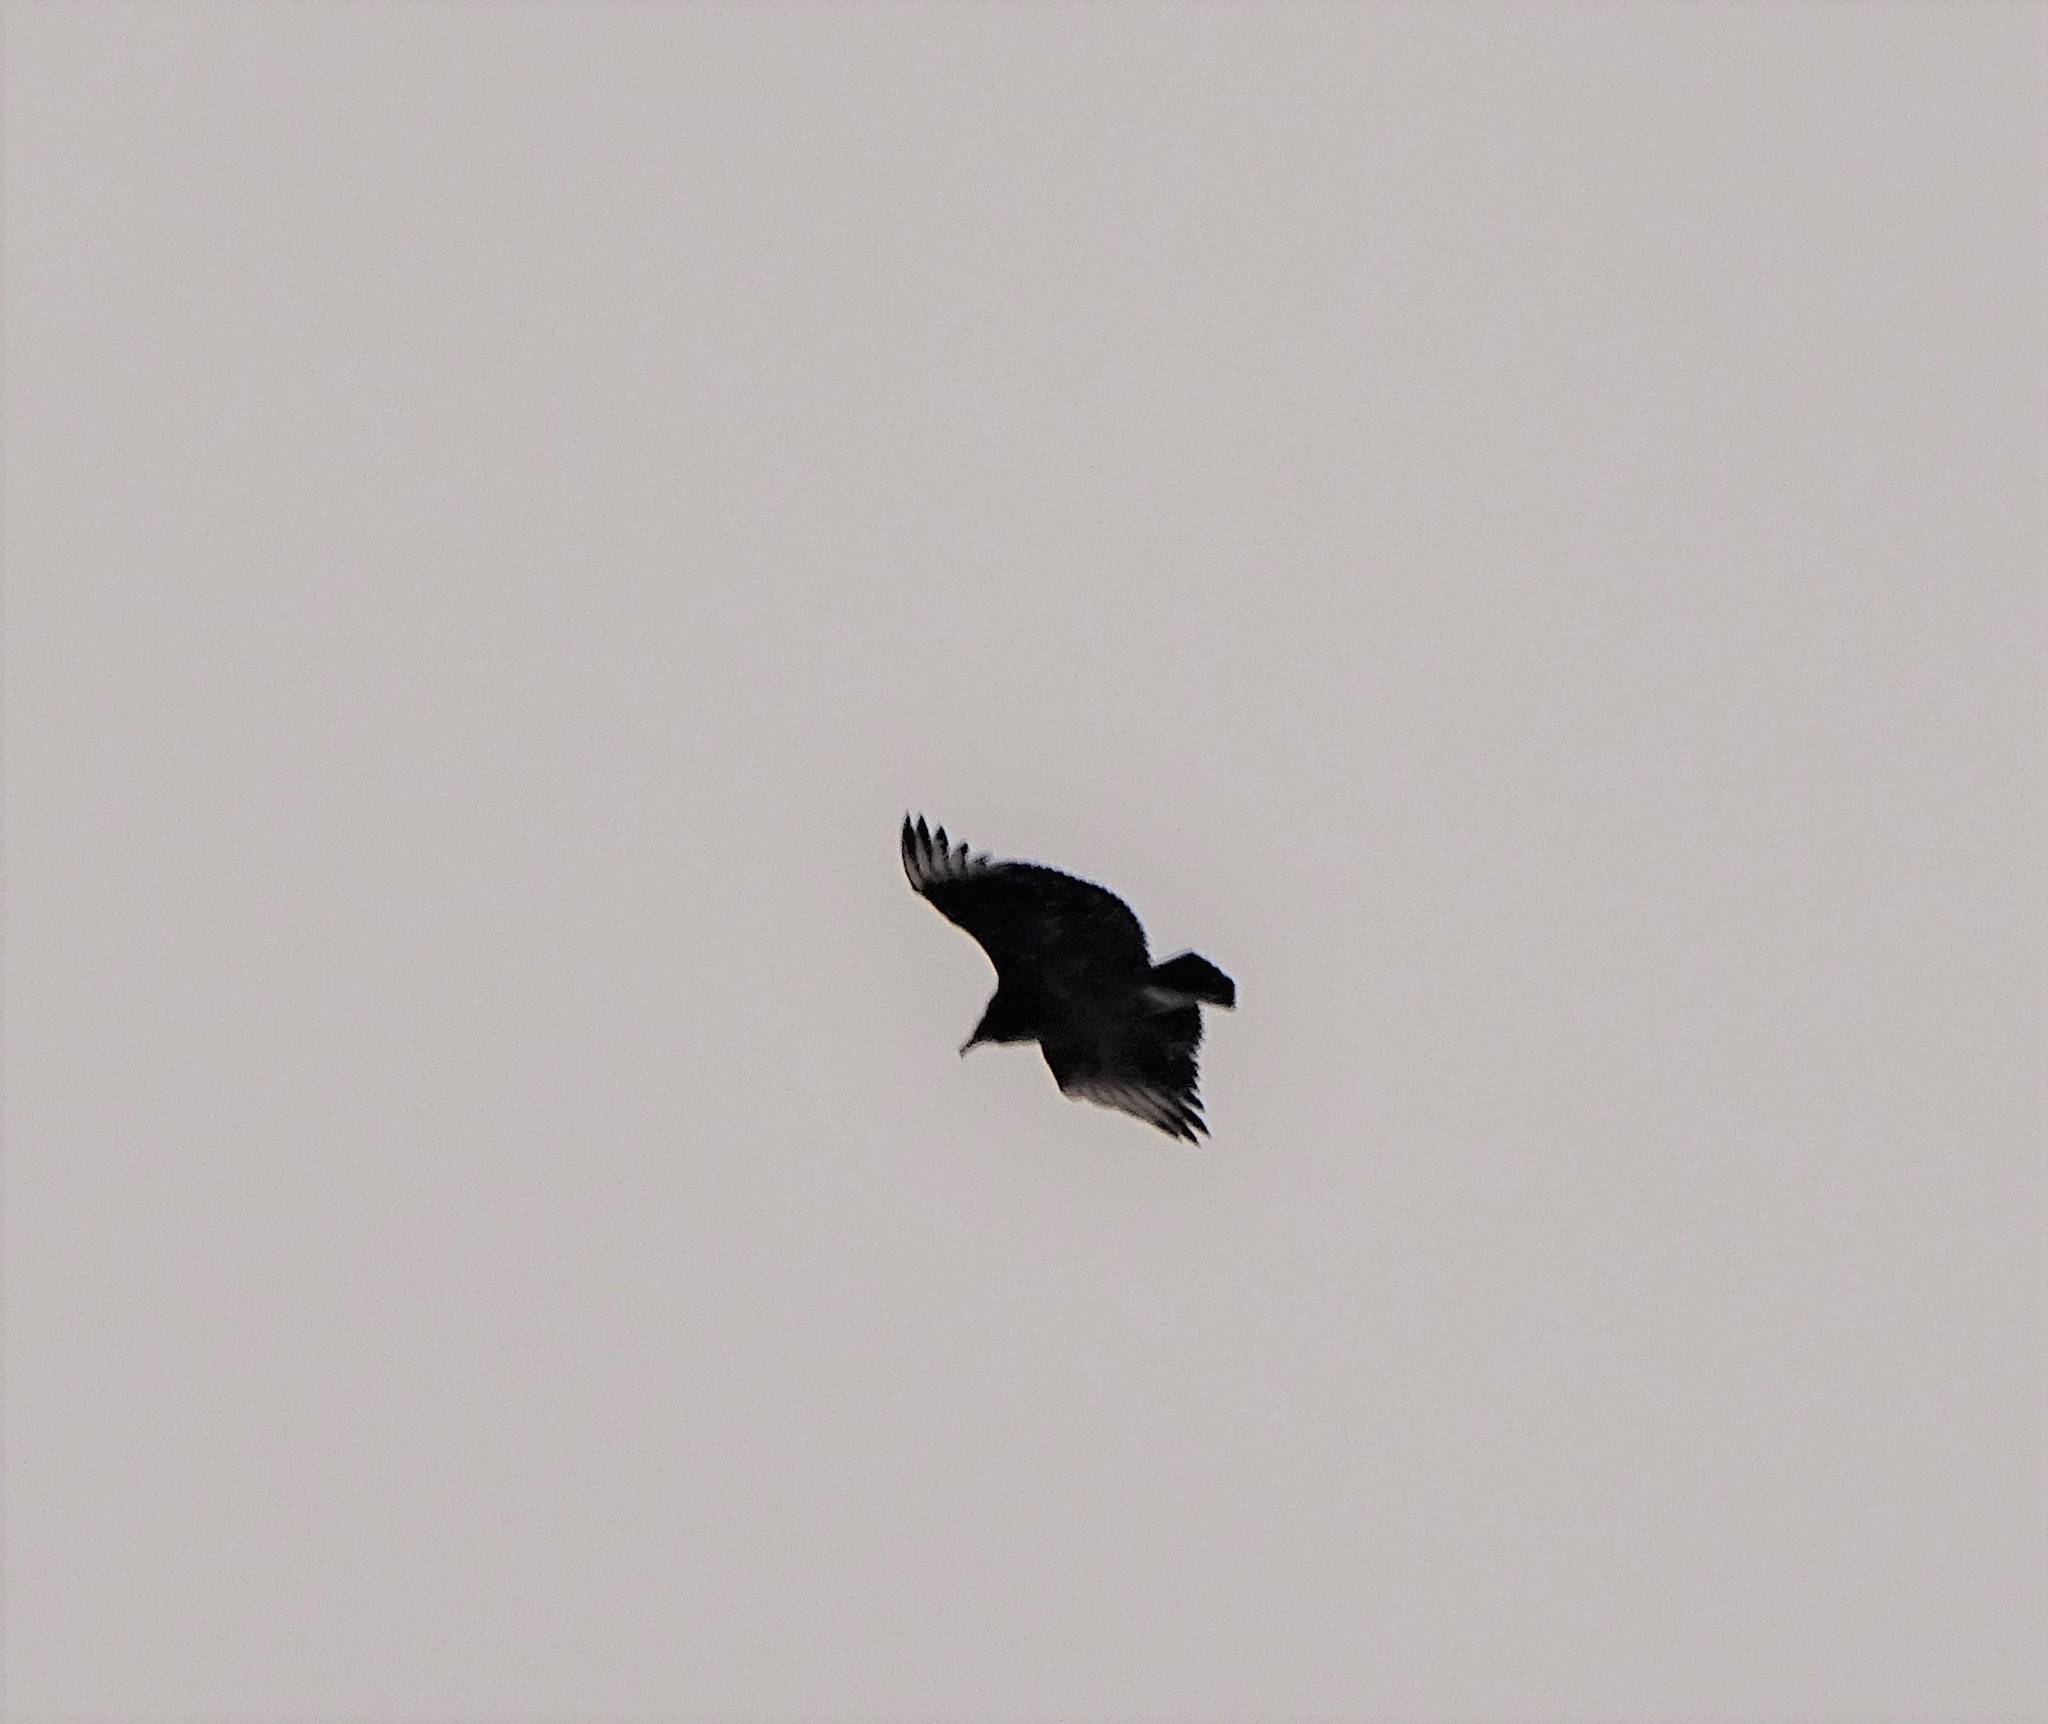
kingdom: Animalia
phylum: Chordata
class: Aves
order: Accipitriformes
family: Cathartidae
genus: Coragyps
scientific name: Coragyps atratus
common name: Black vulture
